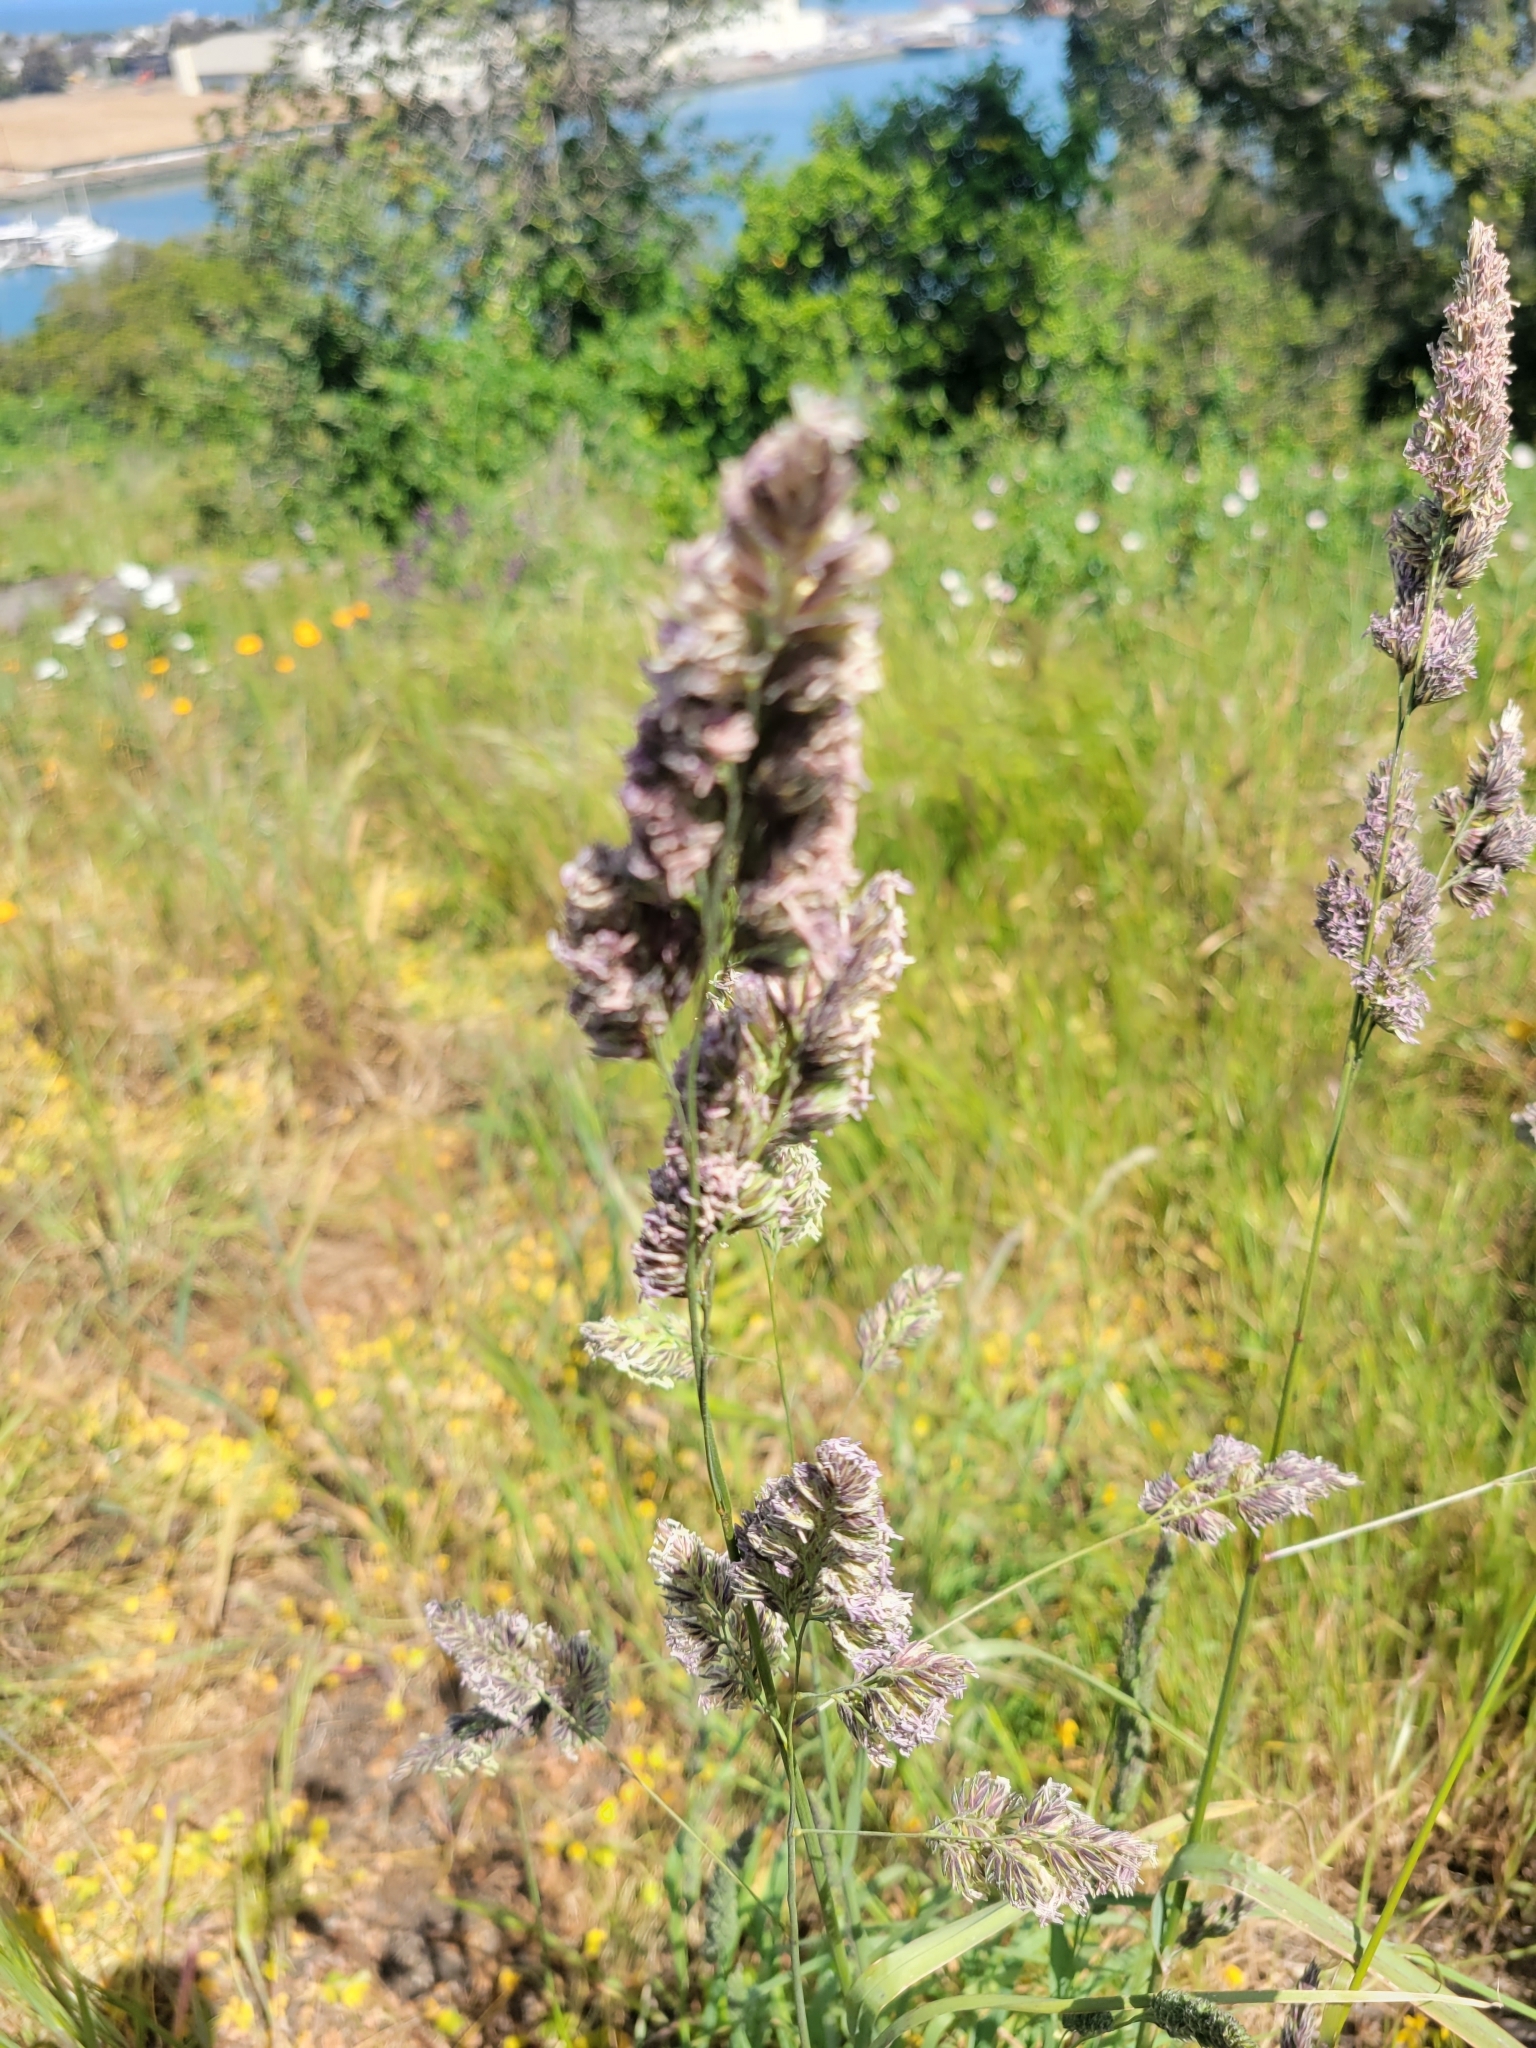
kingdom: Plantae
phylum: Tracheophyta
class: Liliopsida
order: Poales
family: Poaceae
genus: Dactylis
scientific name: Dactylis glomerata
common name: Orchardgrass
